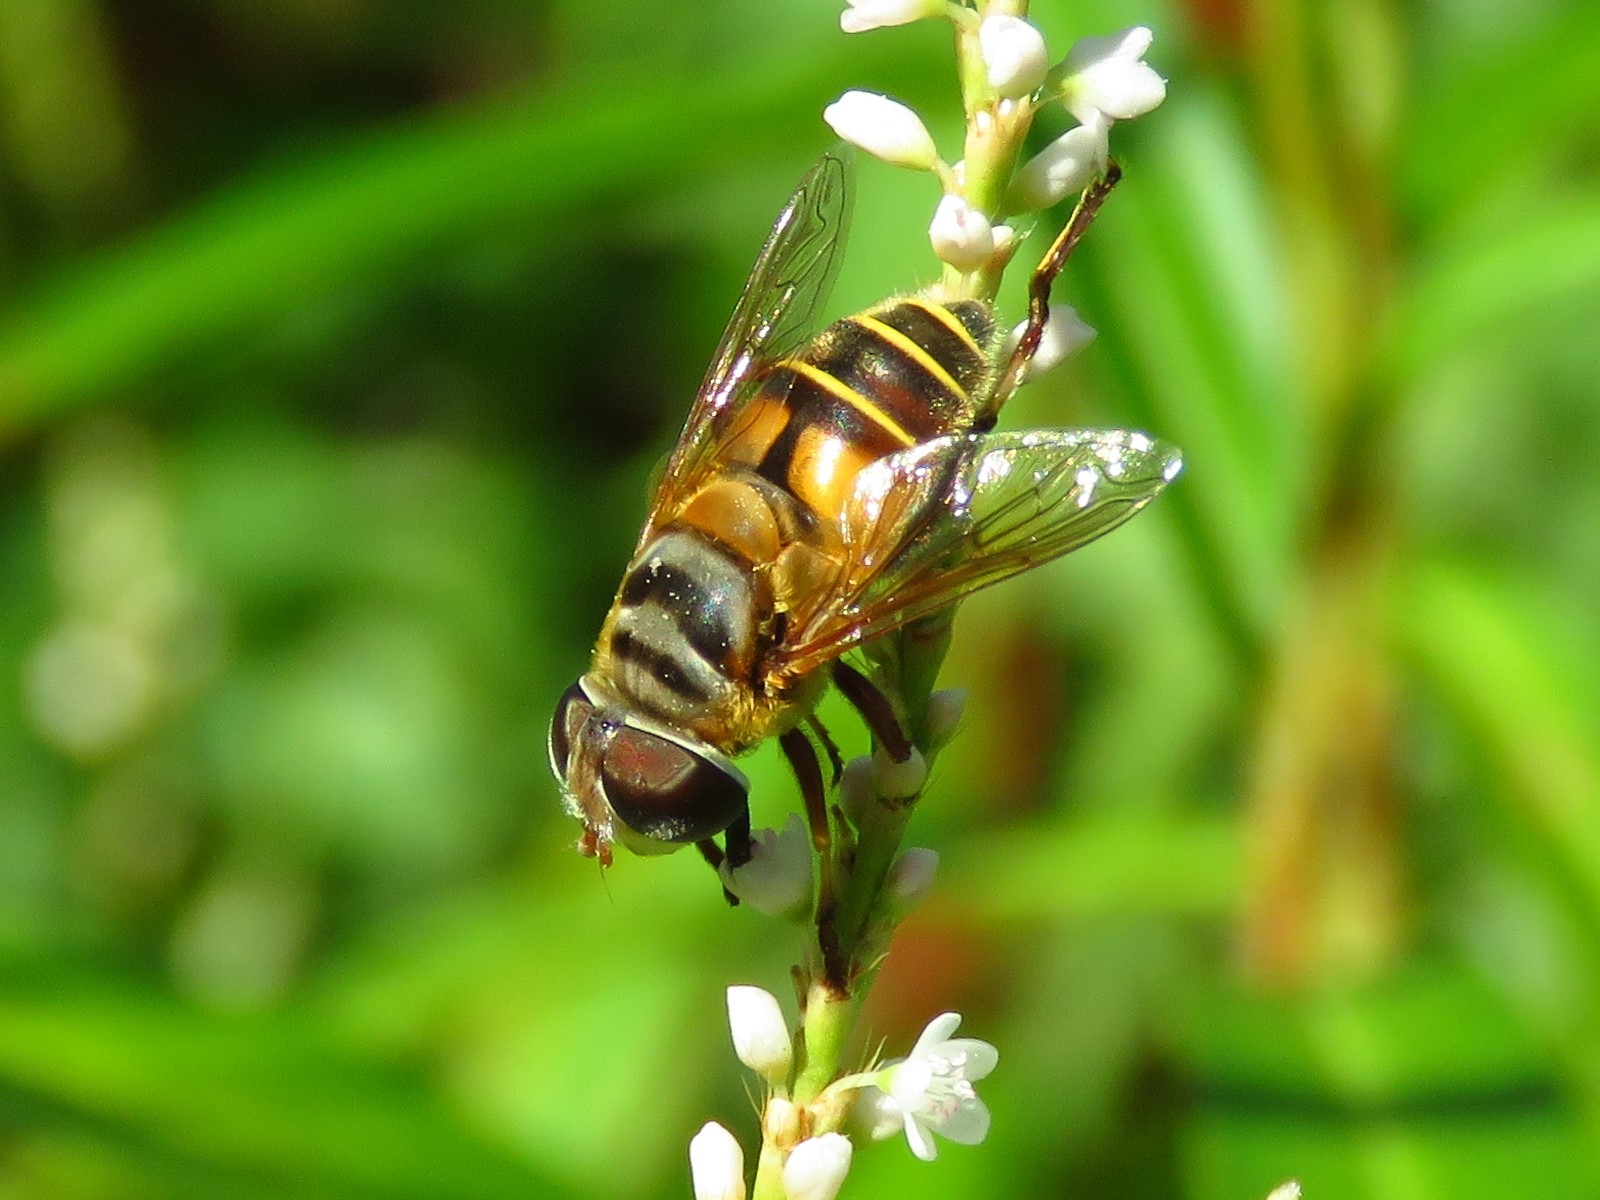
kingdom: Animalia
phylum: Arthropoda
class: Insecta
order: Diptera
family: Syrphidae
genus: Palpada
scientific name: Palpada vinetorum
